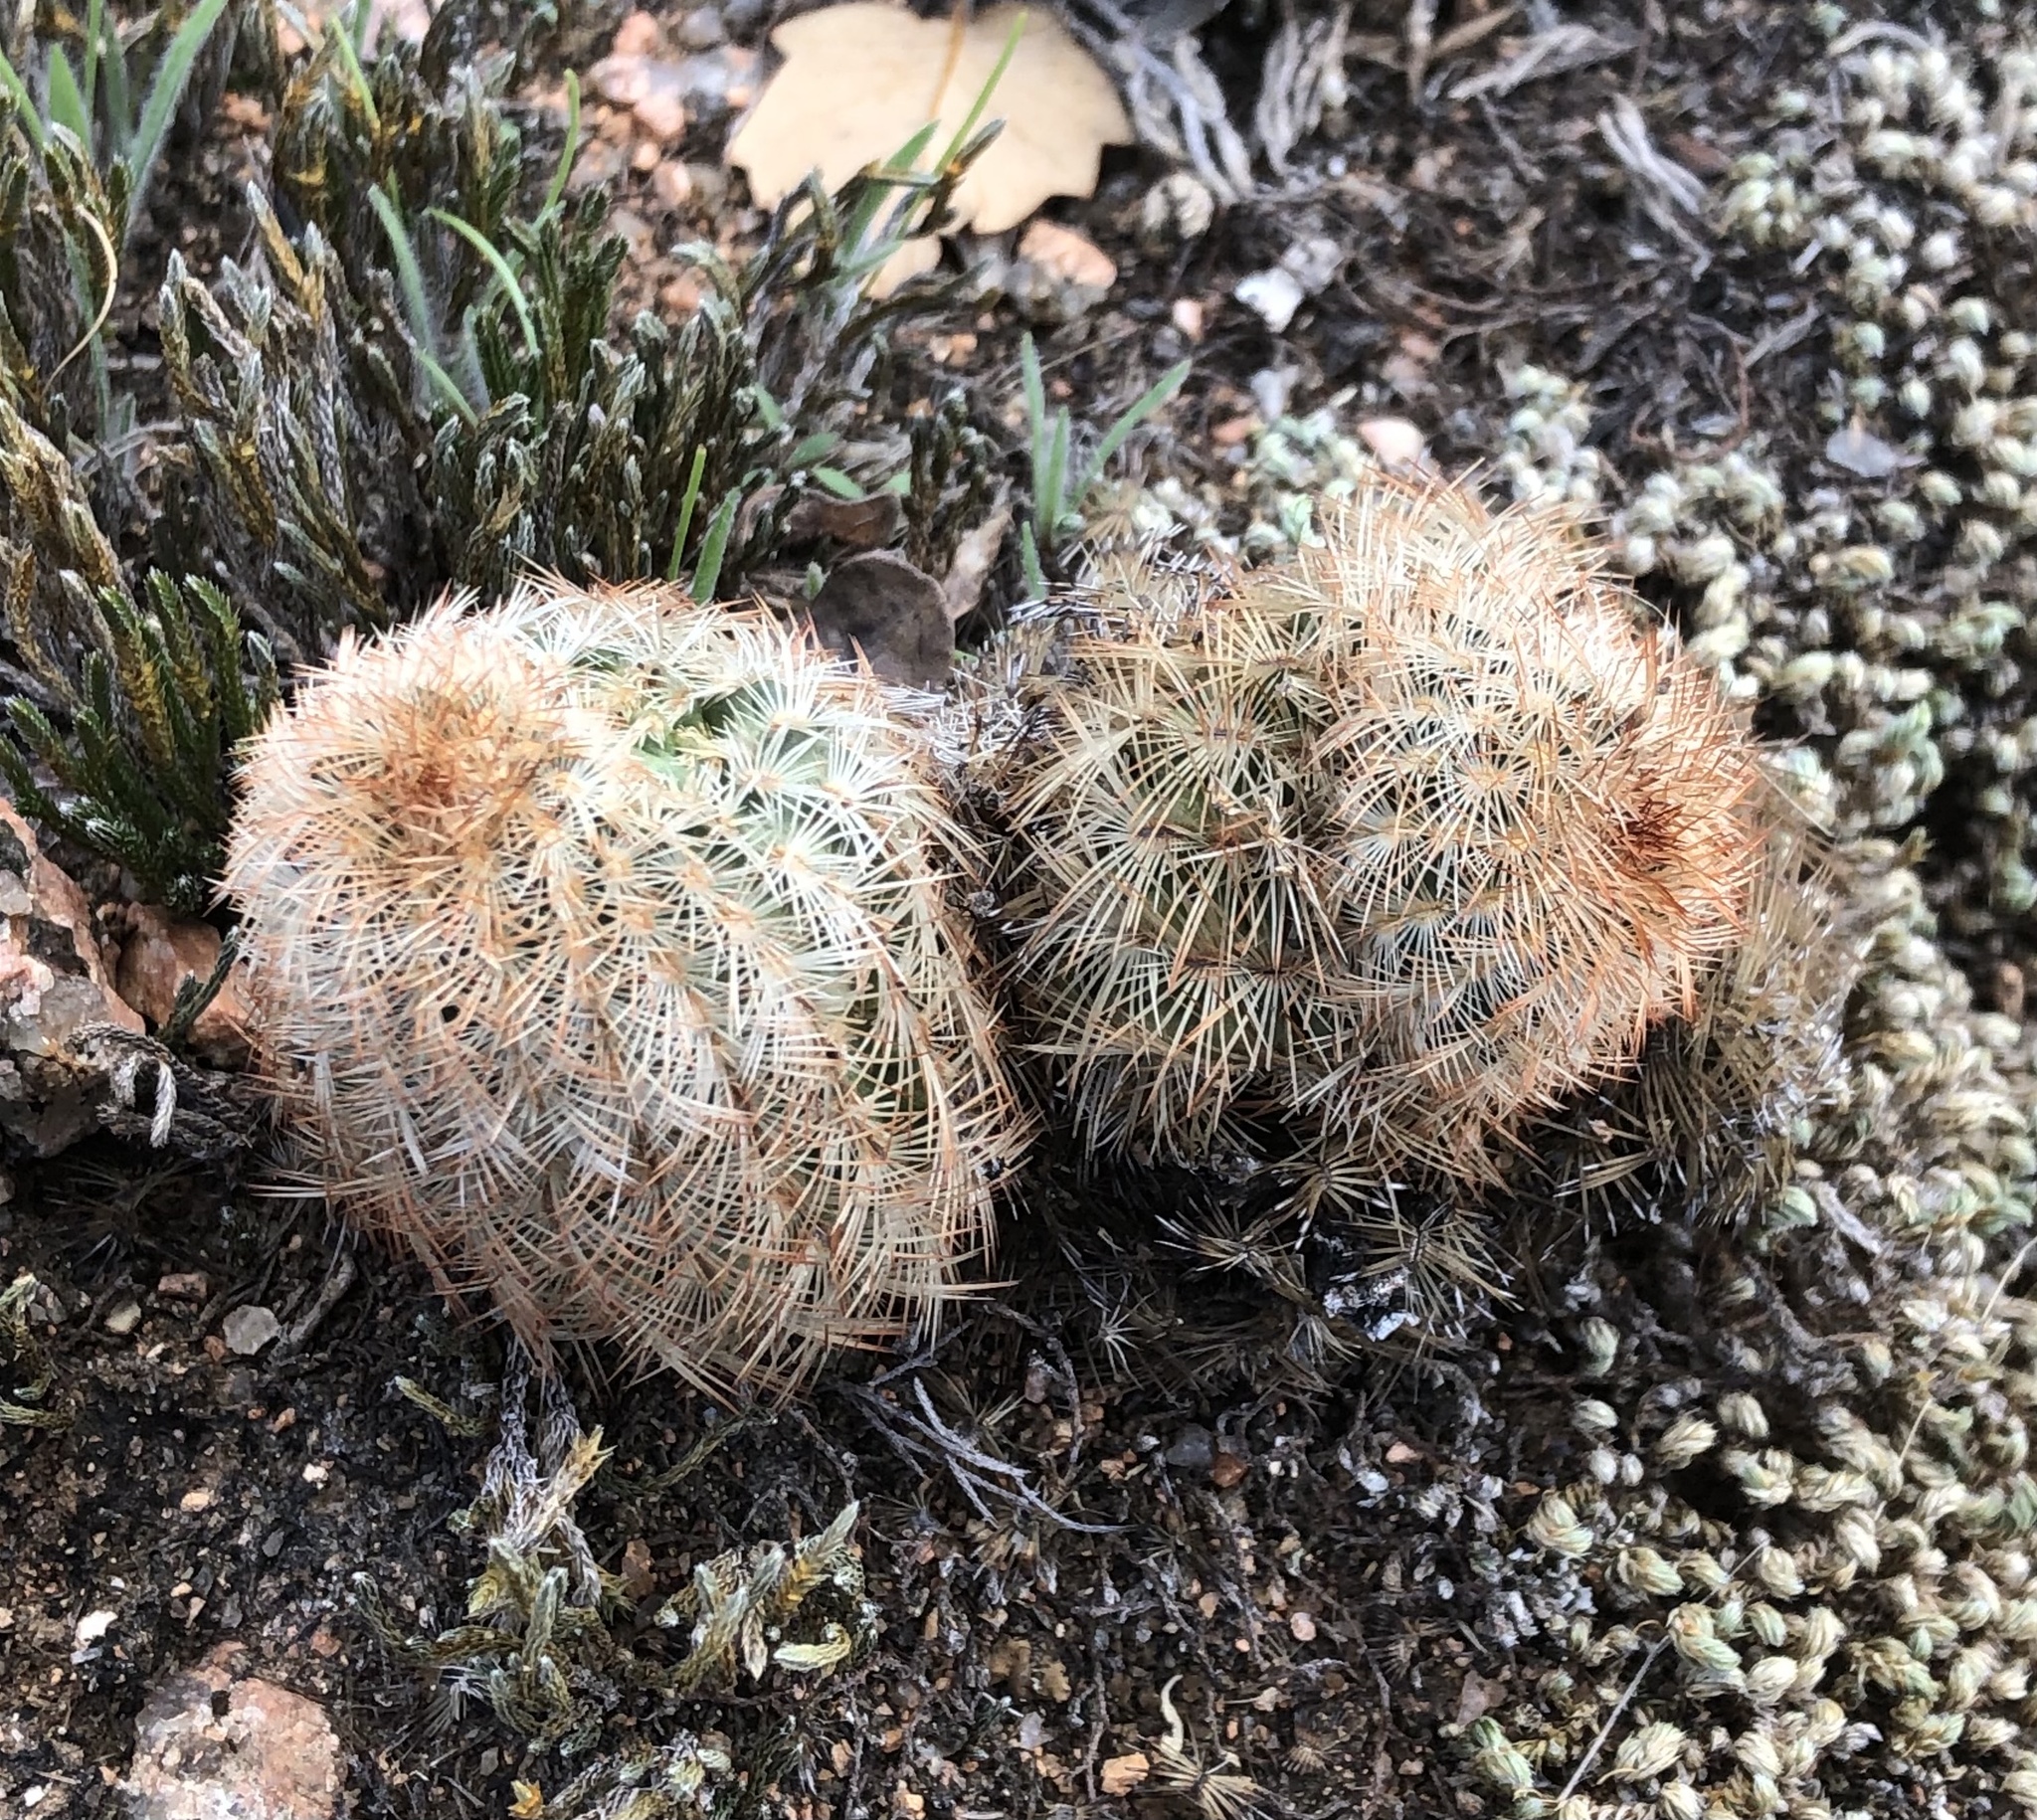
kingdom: Plantae
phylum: Tracheophyta
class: Magnoliopsida
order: Caryophyllales
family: Cactaceae
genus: Echinocereus
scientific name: Echinocereus reichenbachii
